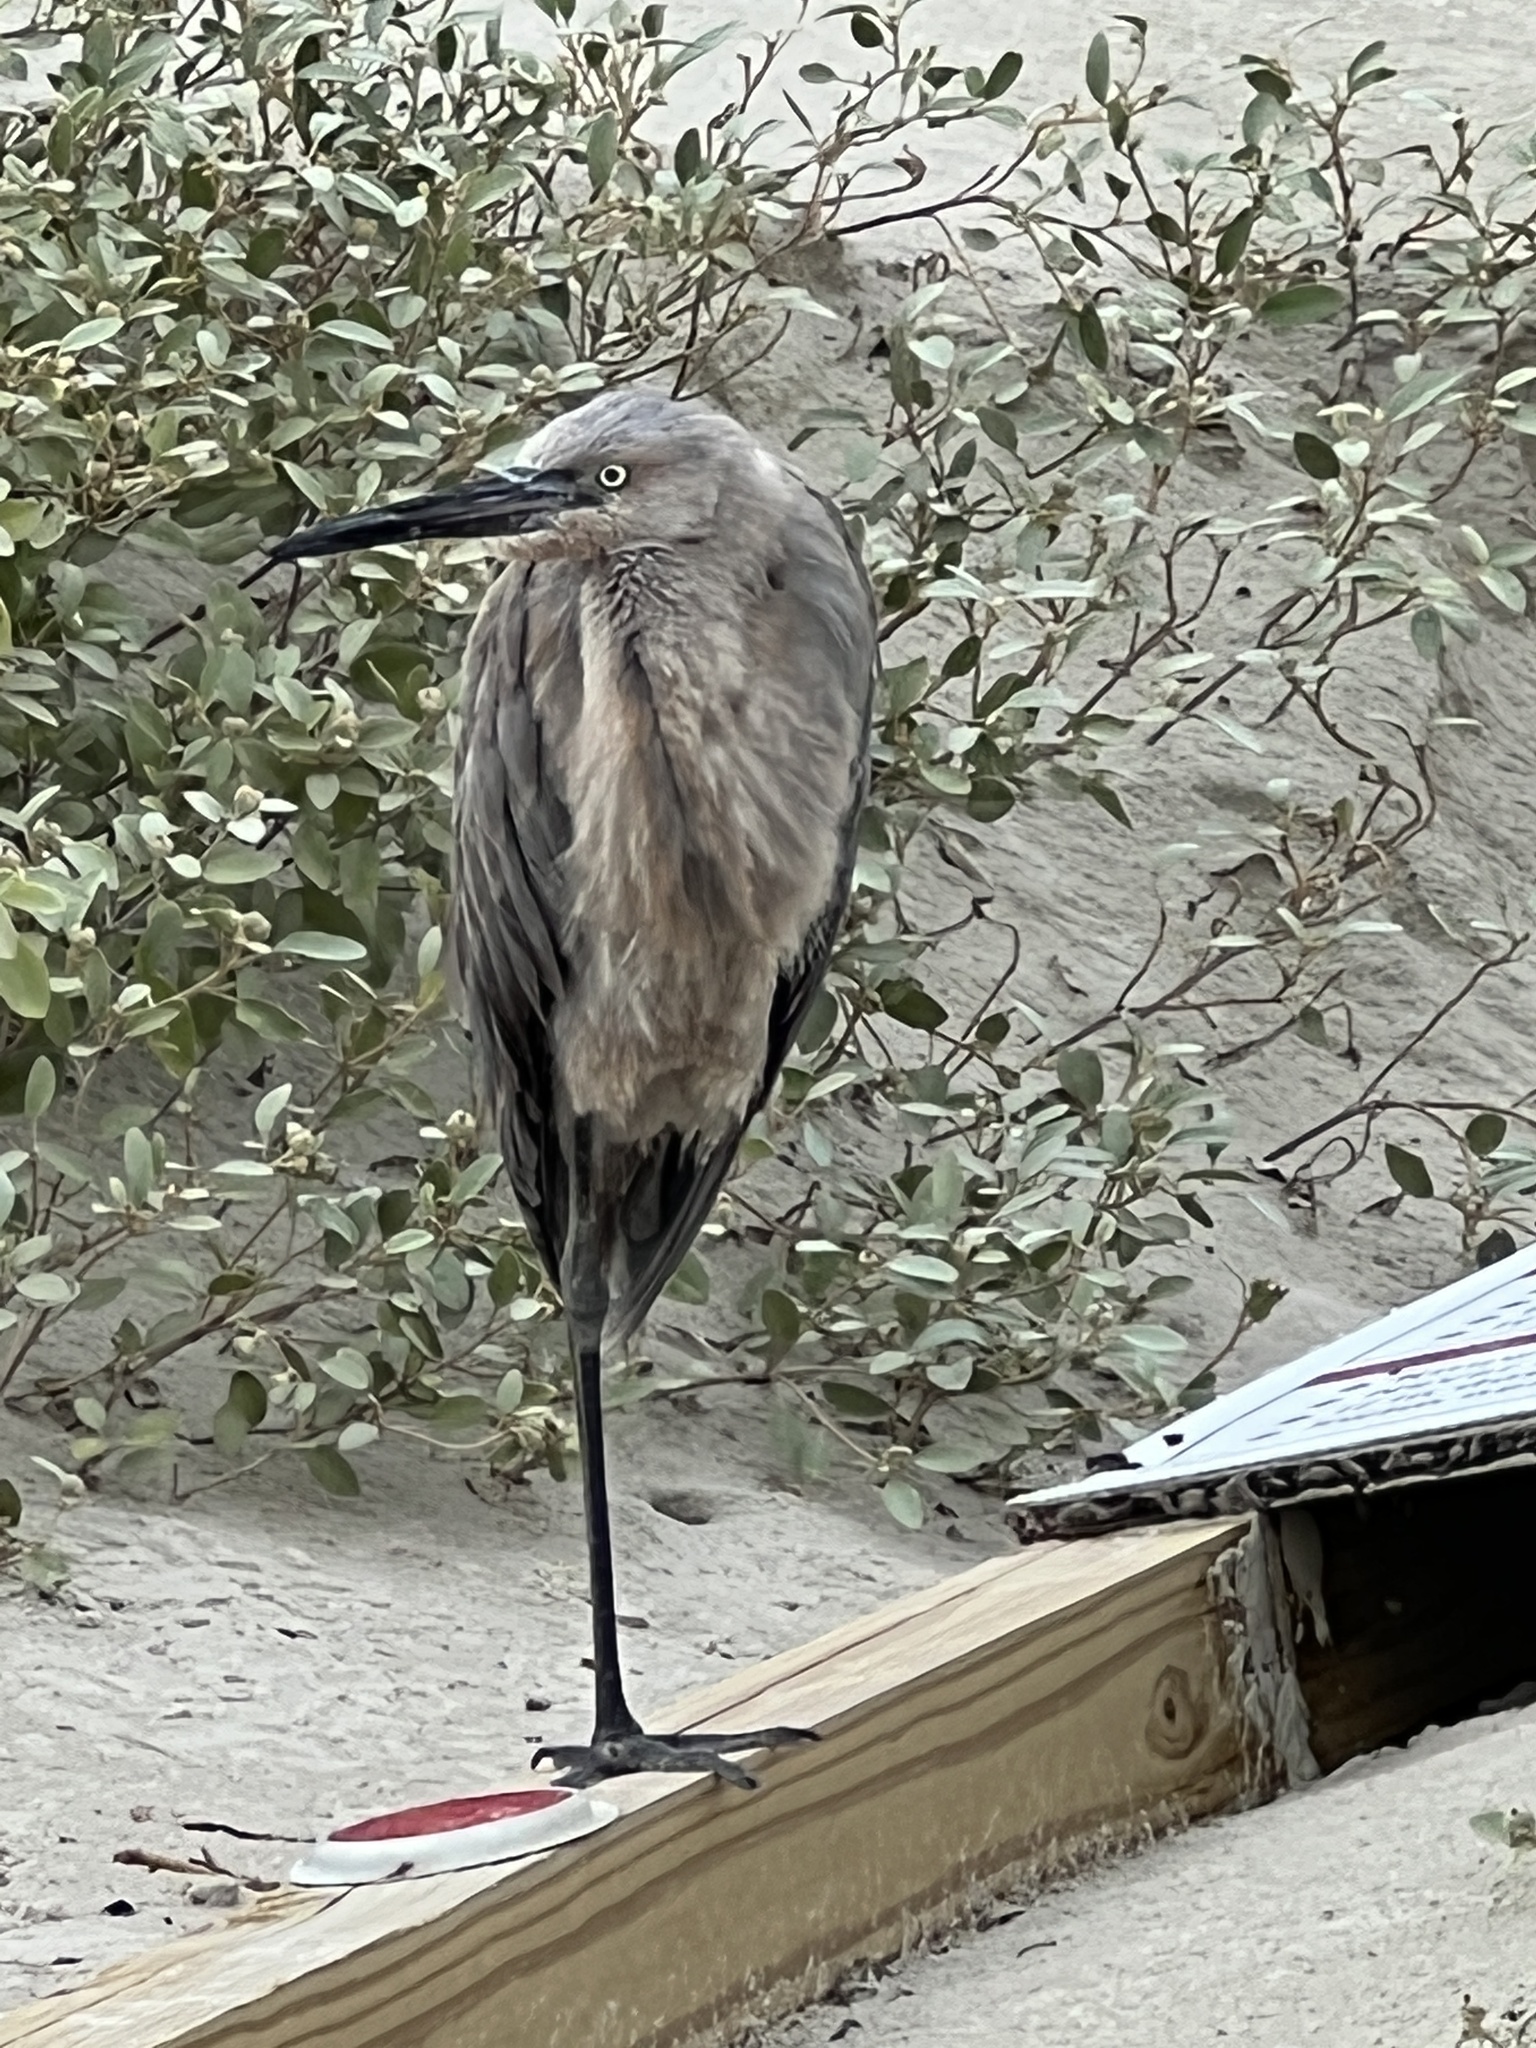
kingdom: Animalia
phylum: Chordata
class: Aves
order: Pelecaniformes
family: Ardeidae
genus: Egretta
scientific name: Egretta rufescens
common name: Reddish egret
